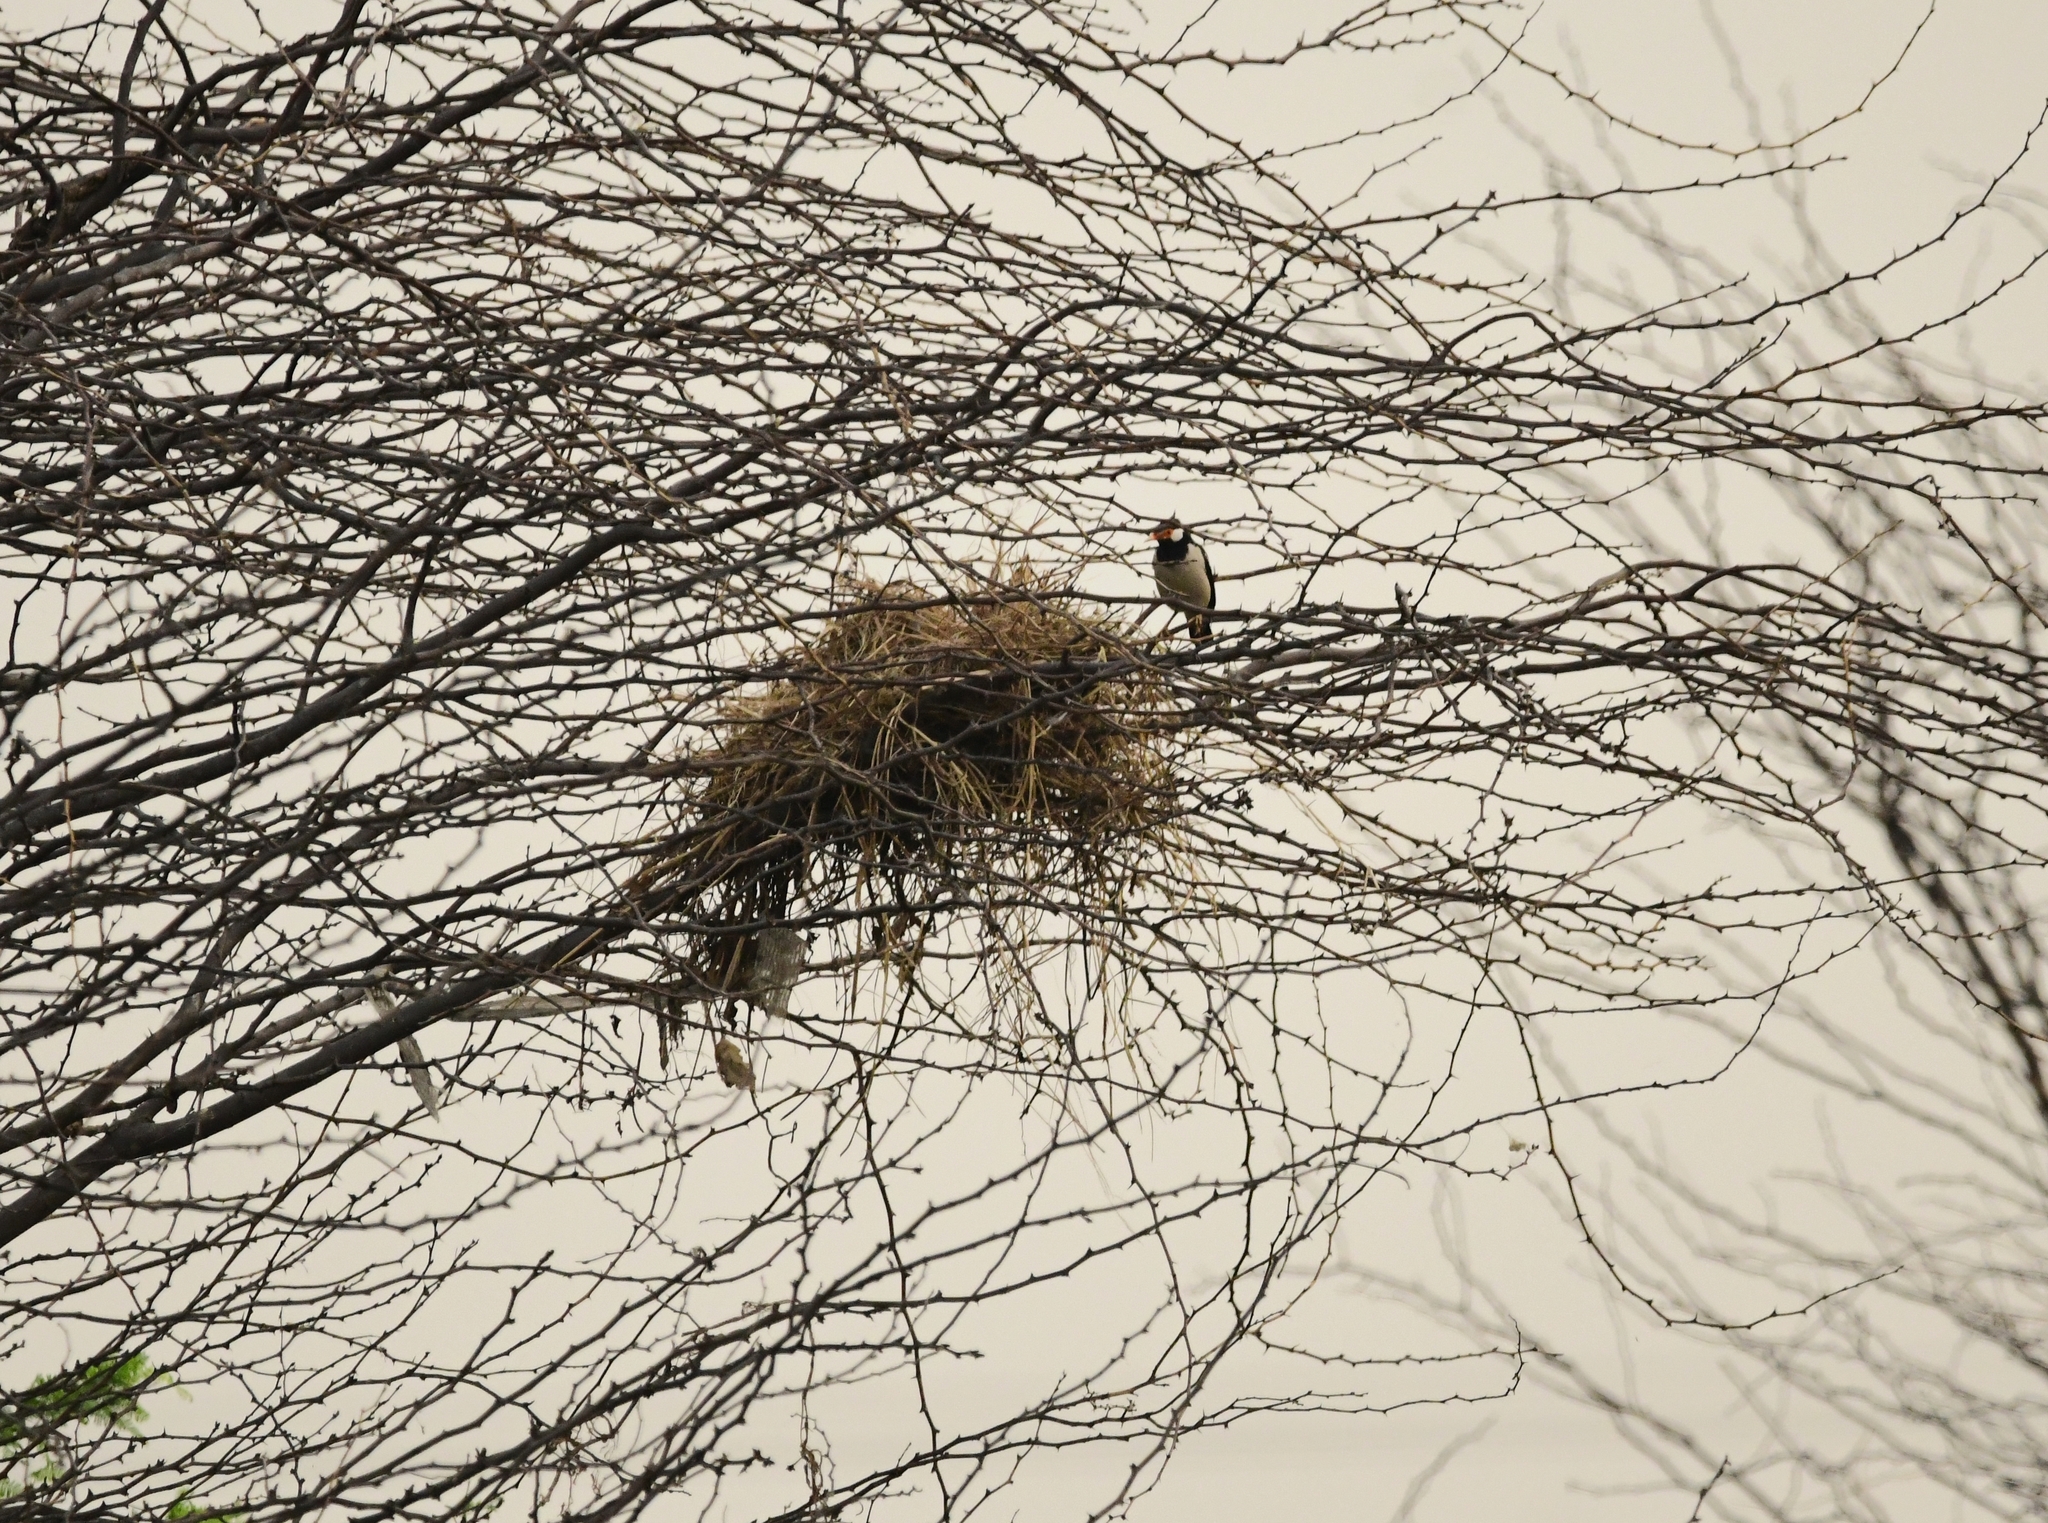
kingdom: Animalia
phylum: Chordata
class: Aves
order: Passeriformes
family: Sturnidae
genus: Gracupica
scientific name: Gracupica contra
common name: Pied myna
